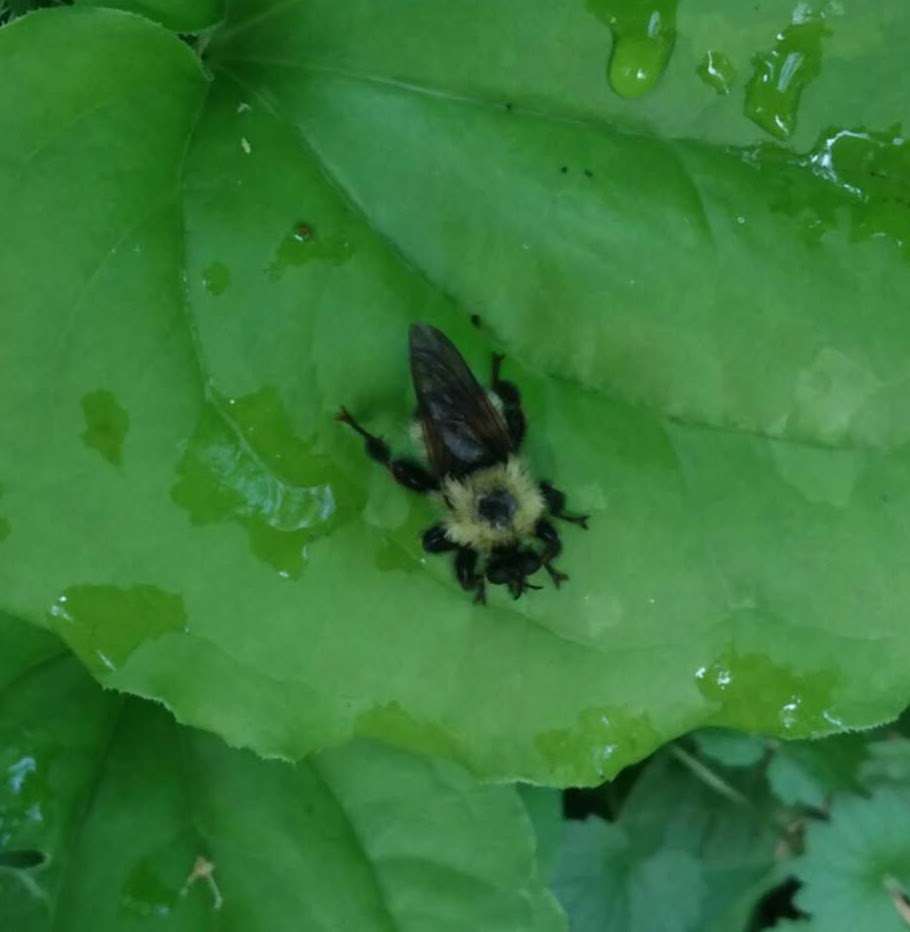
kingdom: Animalia
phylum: Arthropoda
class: Insecta
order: Diptera
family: Asilidae
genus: Laphria
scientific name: Laphria thoracica
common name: Bumble bee mimic robber fly
